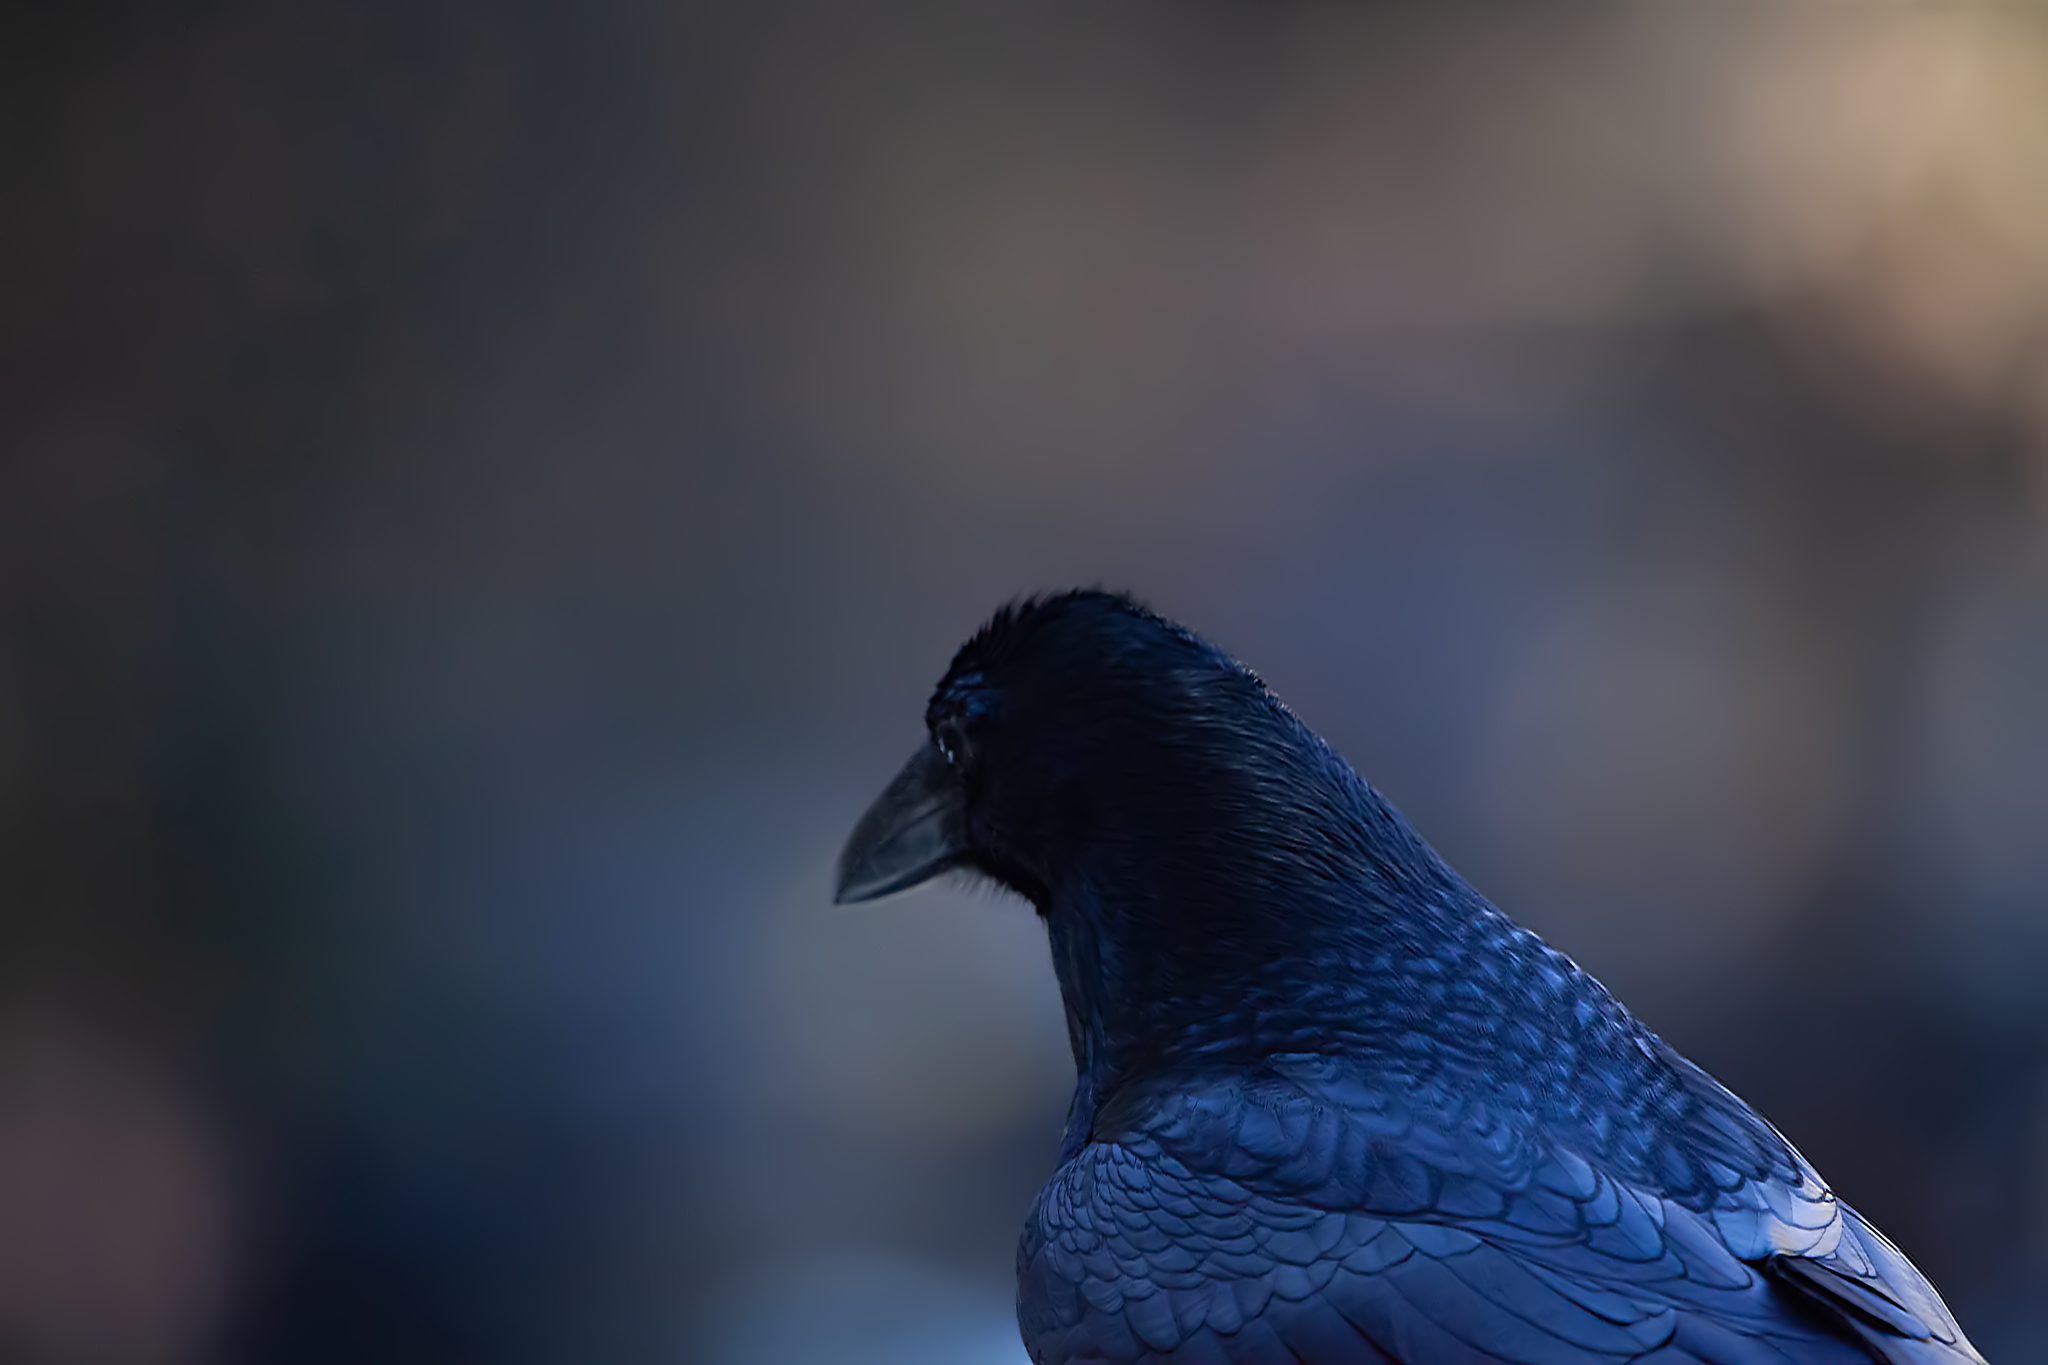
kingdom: Animalia
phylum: Chordata
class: Aves
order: Passeriformes
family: Corvidae
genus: Corvus
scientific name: Corvus corax
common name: Common raven
